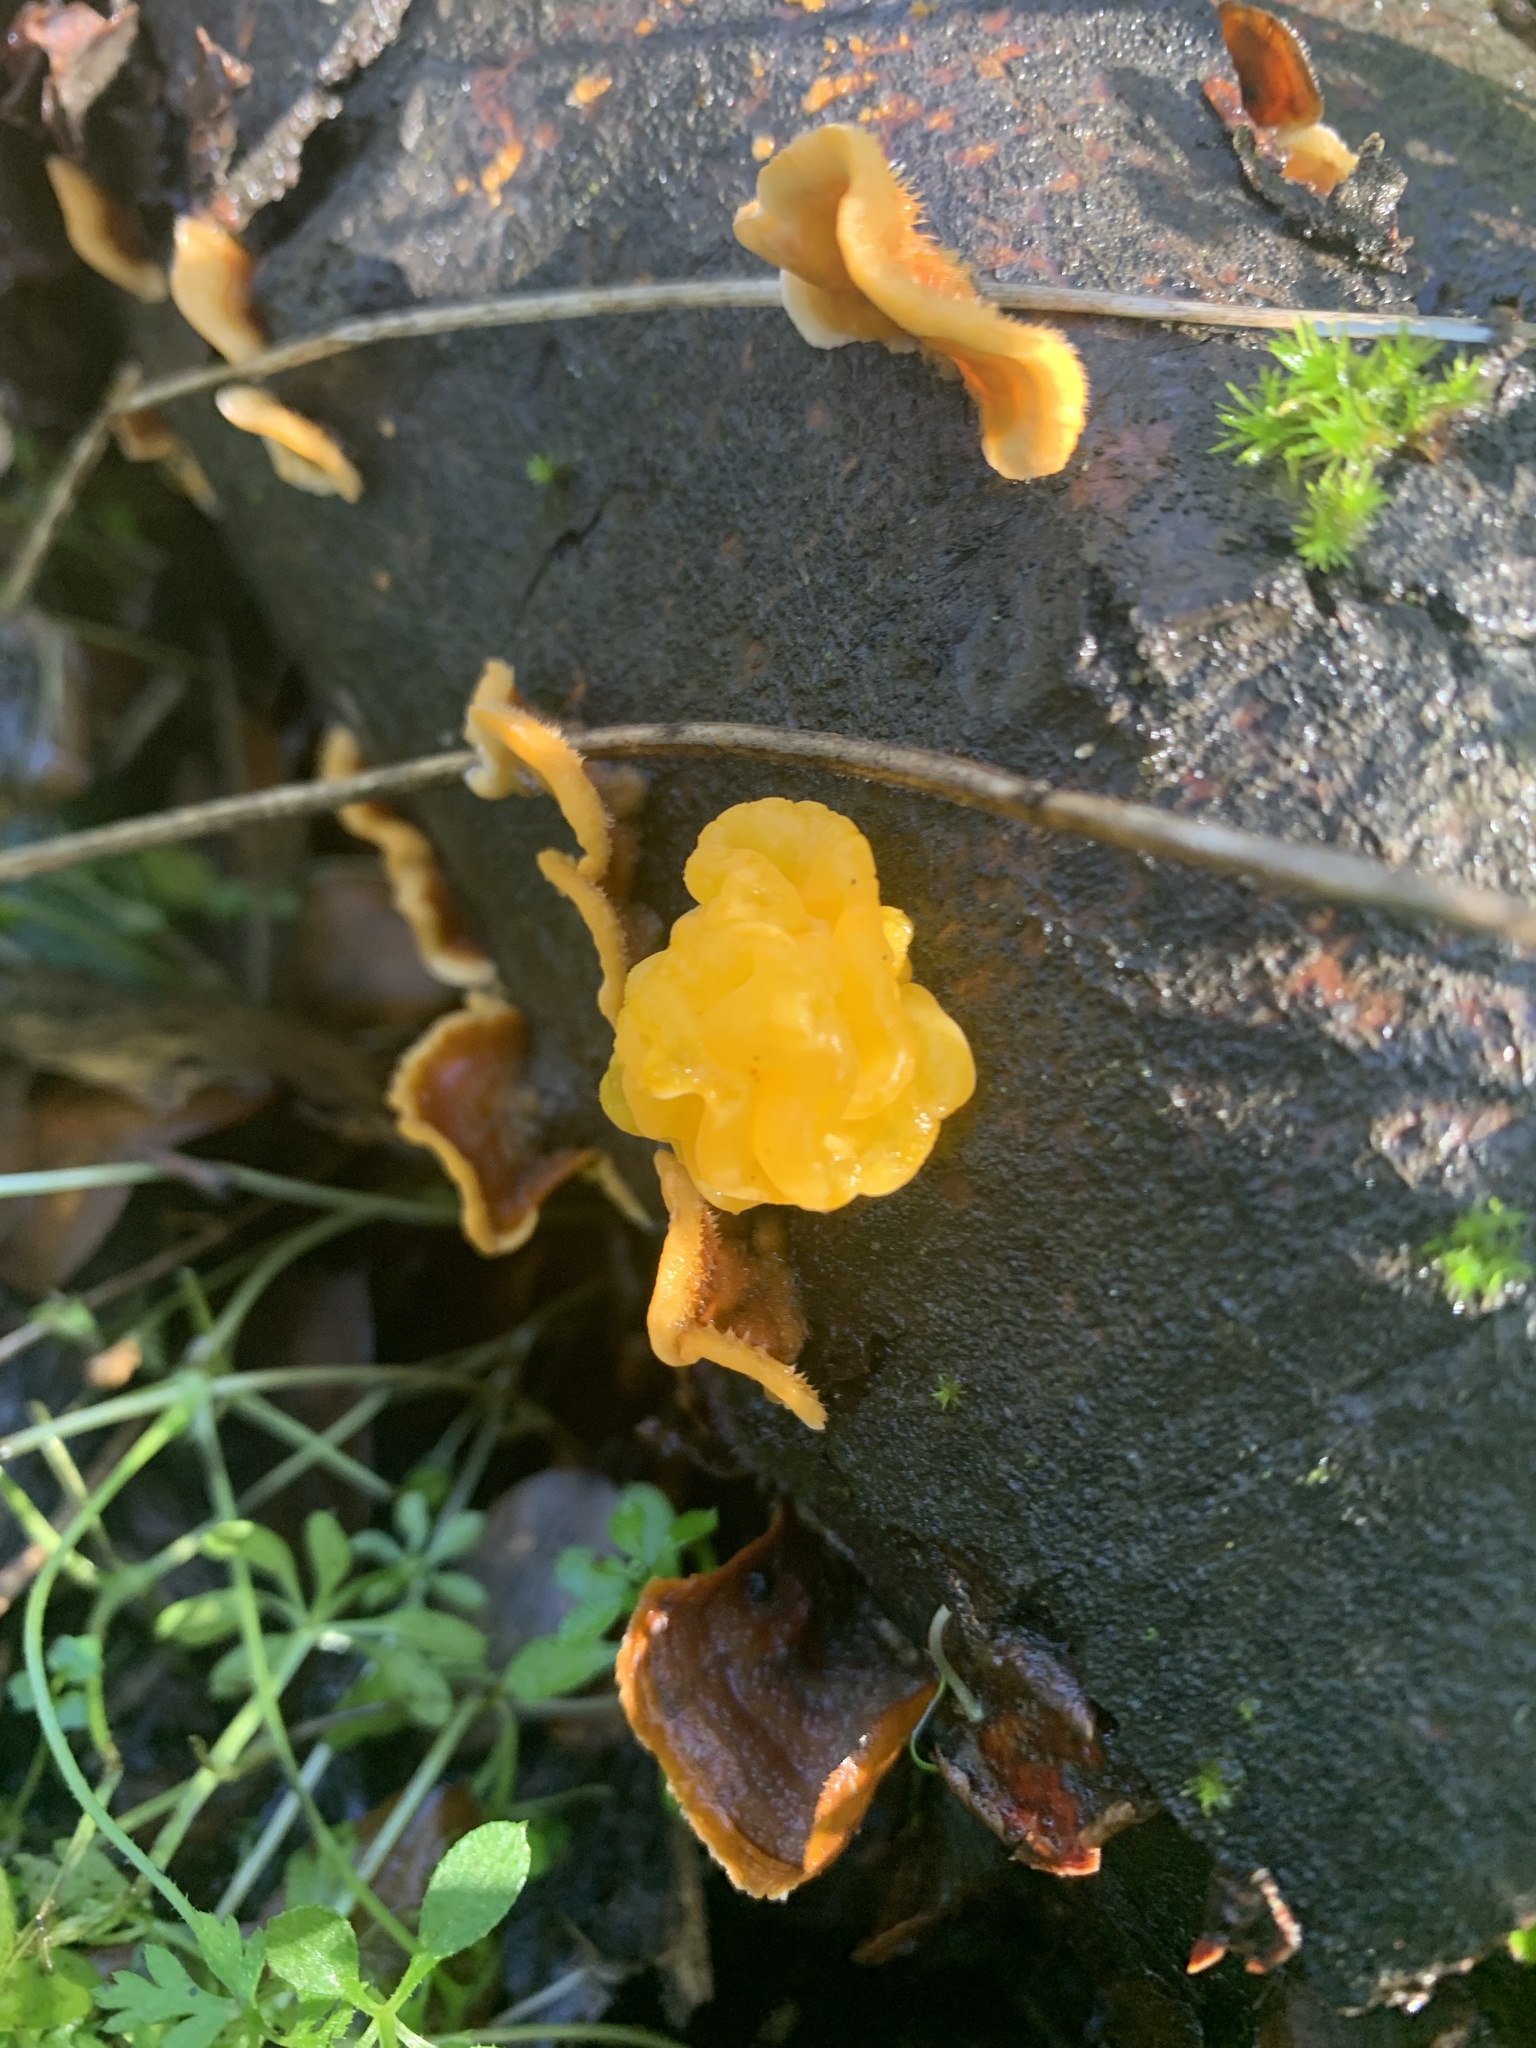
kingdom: Fungi
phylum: Basidiomycota
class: Tremellomycetes
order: Tremellales
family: Naemateliaceae
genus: Naematelia
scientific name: Naematelia aurantia
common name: Golden ear
